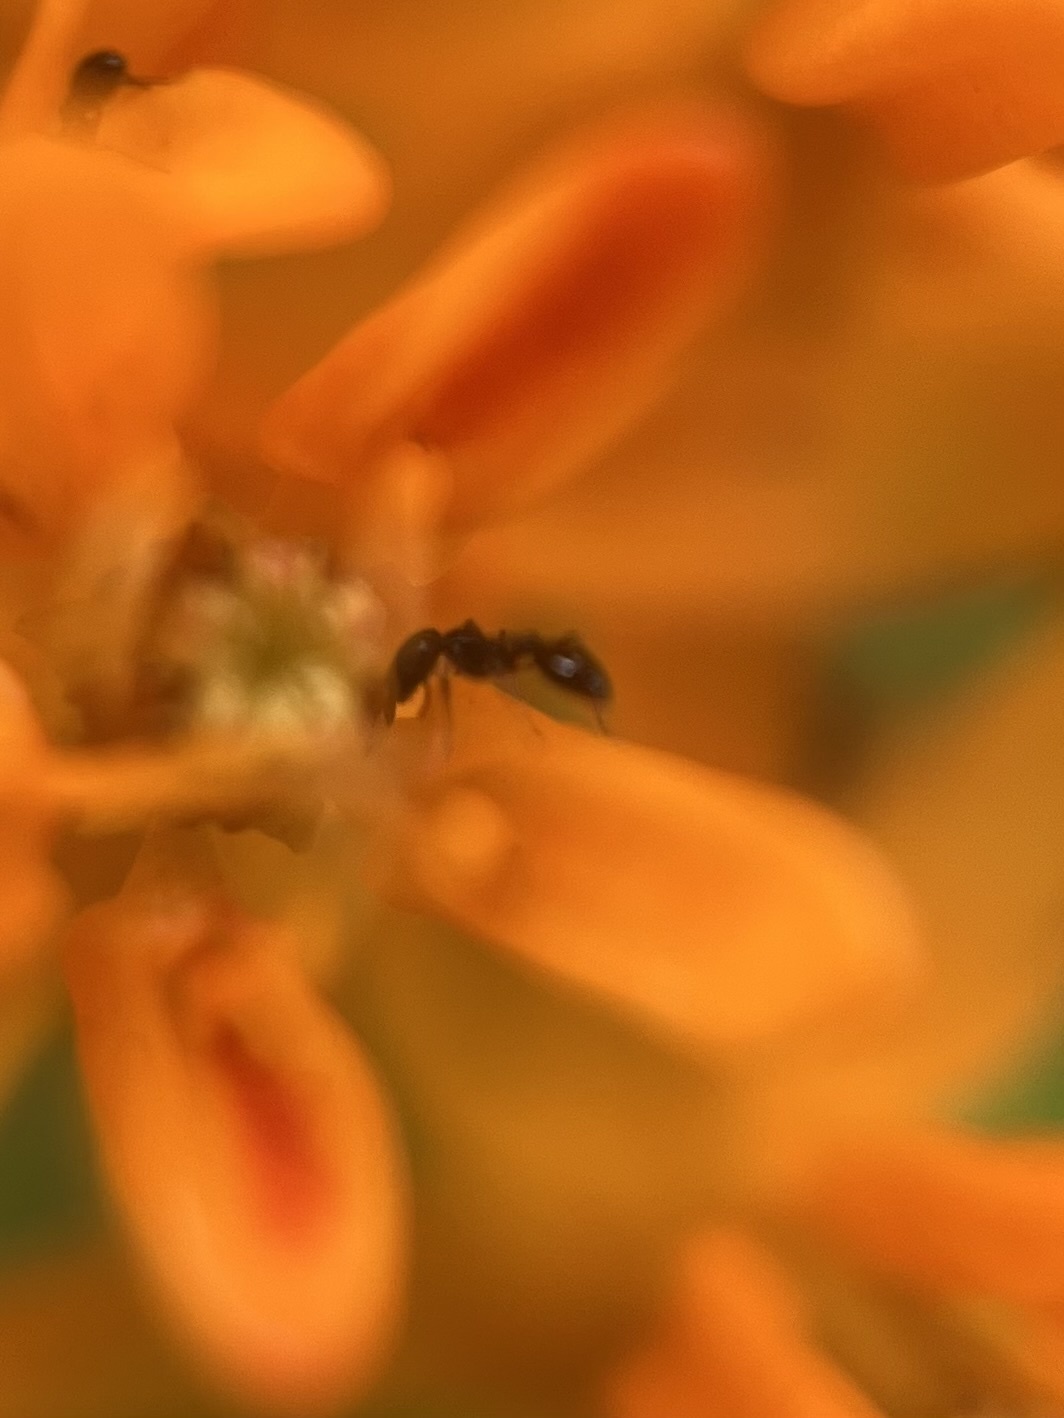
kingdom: Animalia
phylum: Arthropoda
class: Insecta
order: Hymenoptera
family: Formicidae
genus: Monomorium
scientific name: Monomorium minimum
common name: Little black ant
